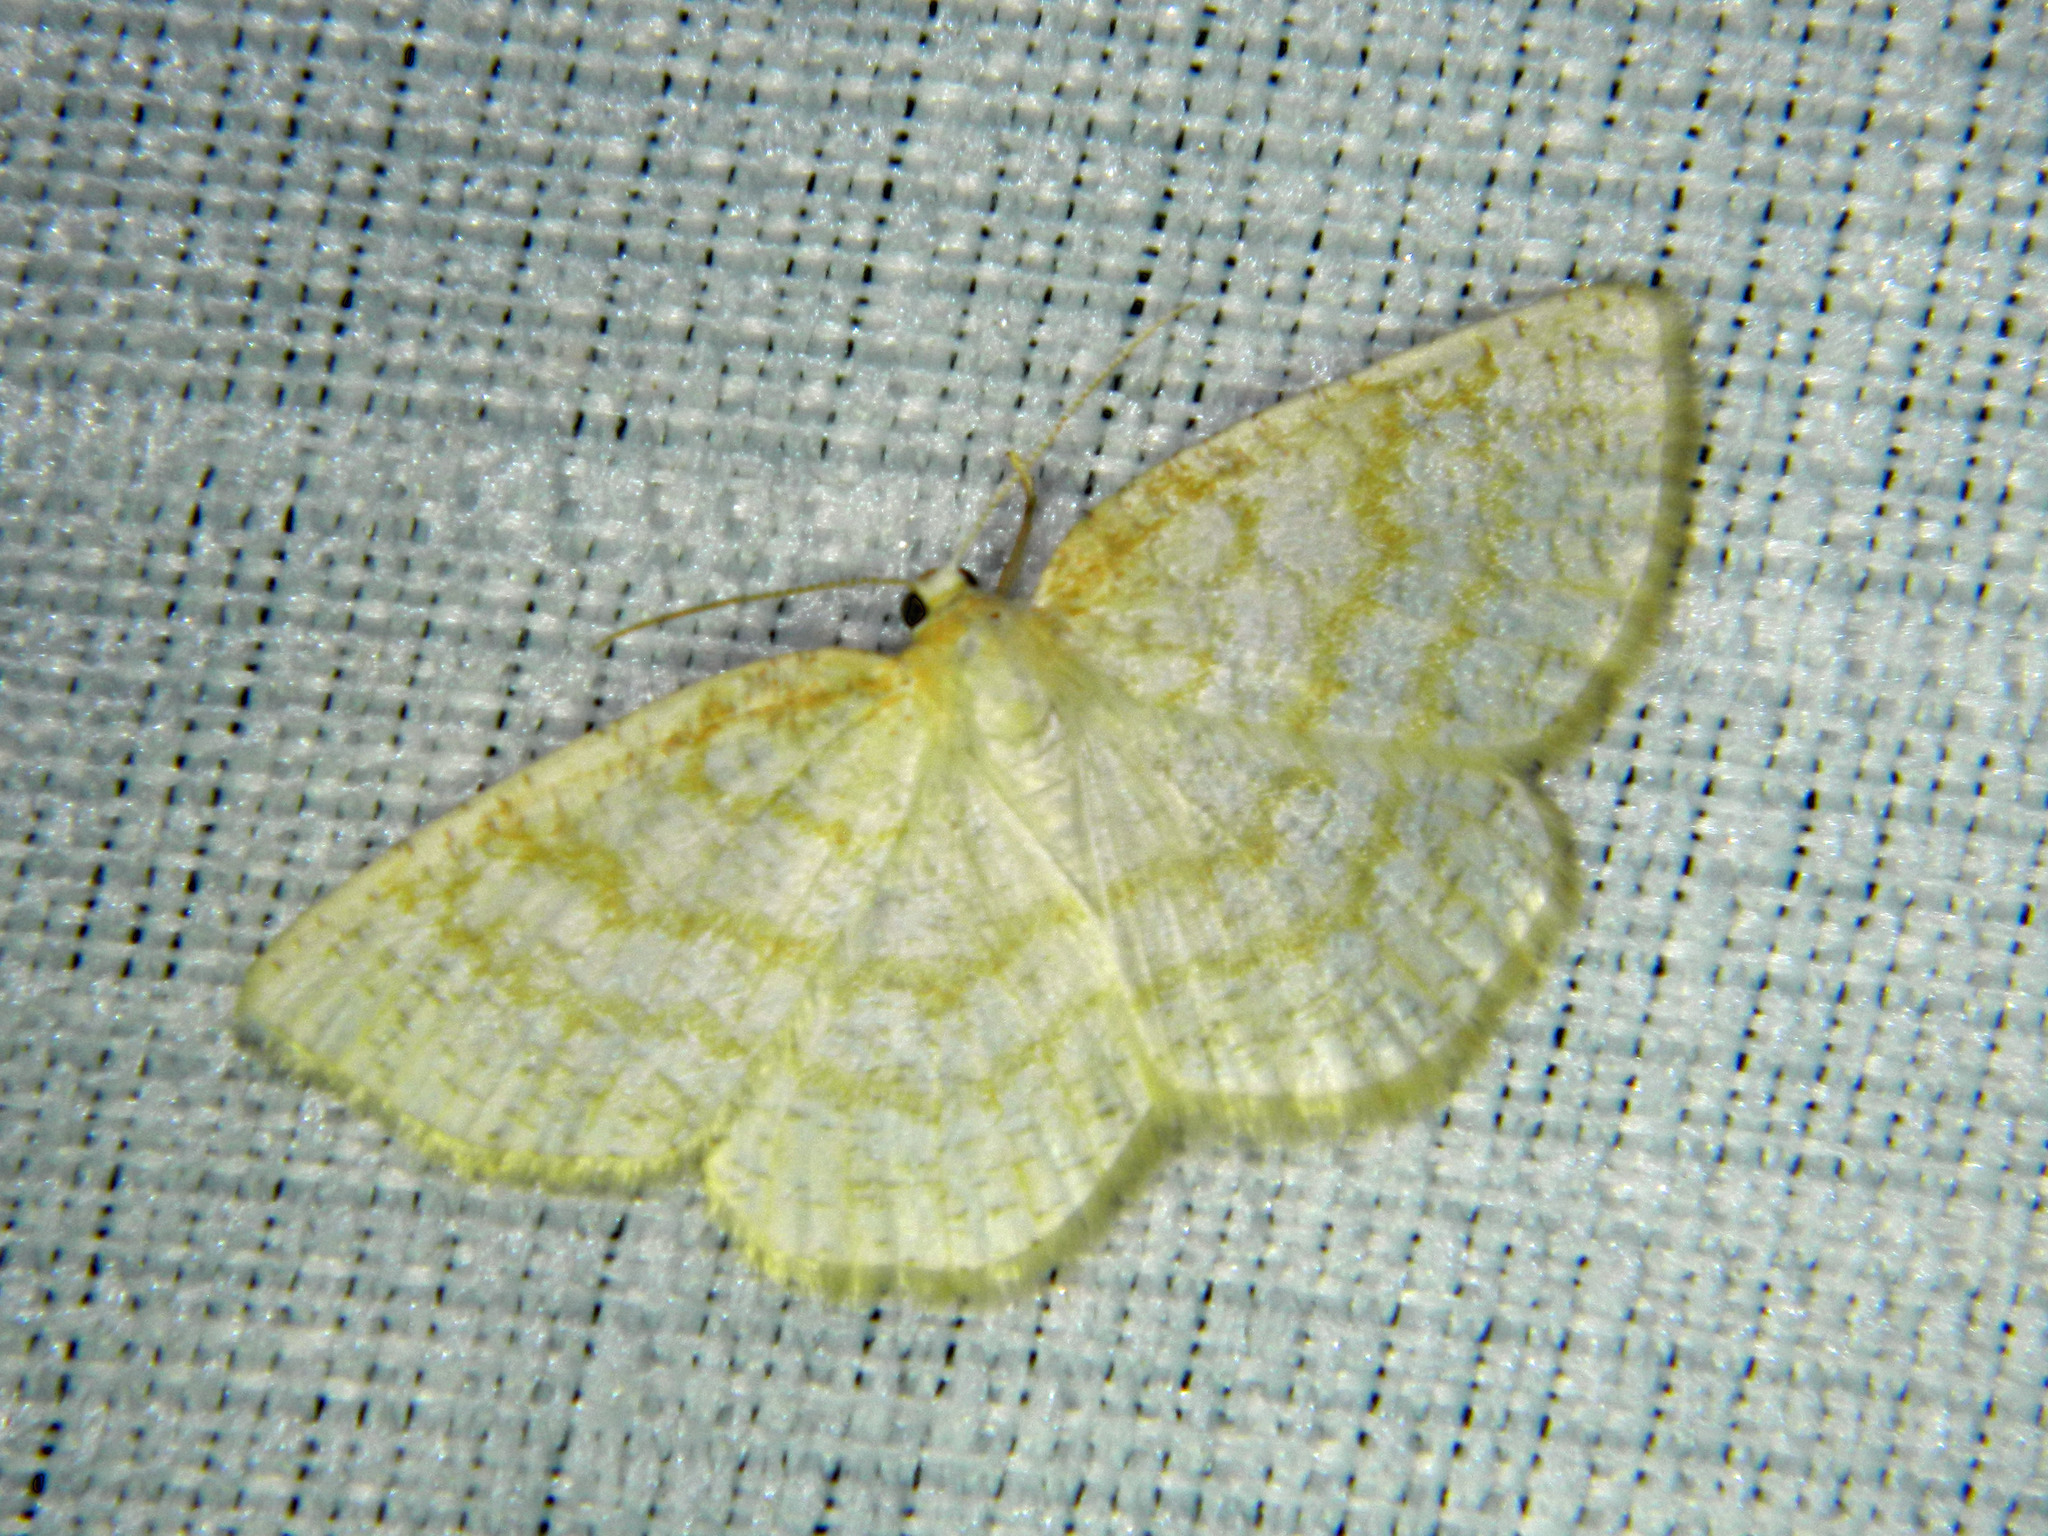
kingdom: Animalia
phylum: Arthropoda
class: Insecta
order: Lepidoptera
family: Geometridae
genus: Cabera
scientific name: Cabera erythemaria
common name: Yellow-dusted cream moth
